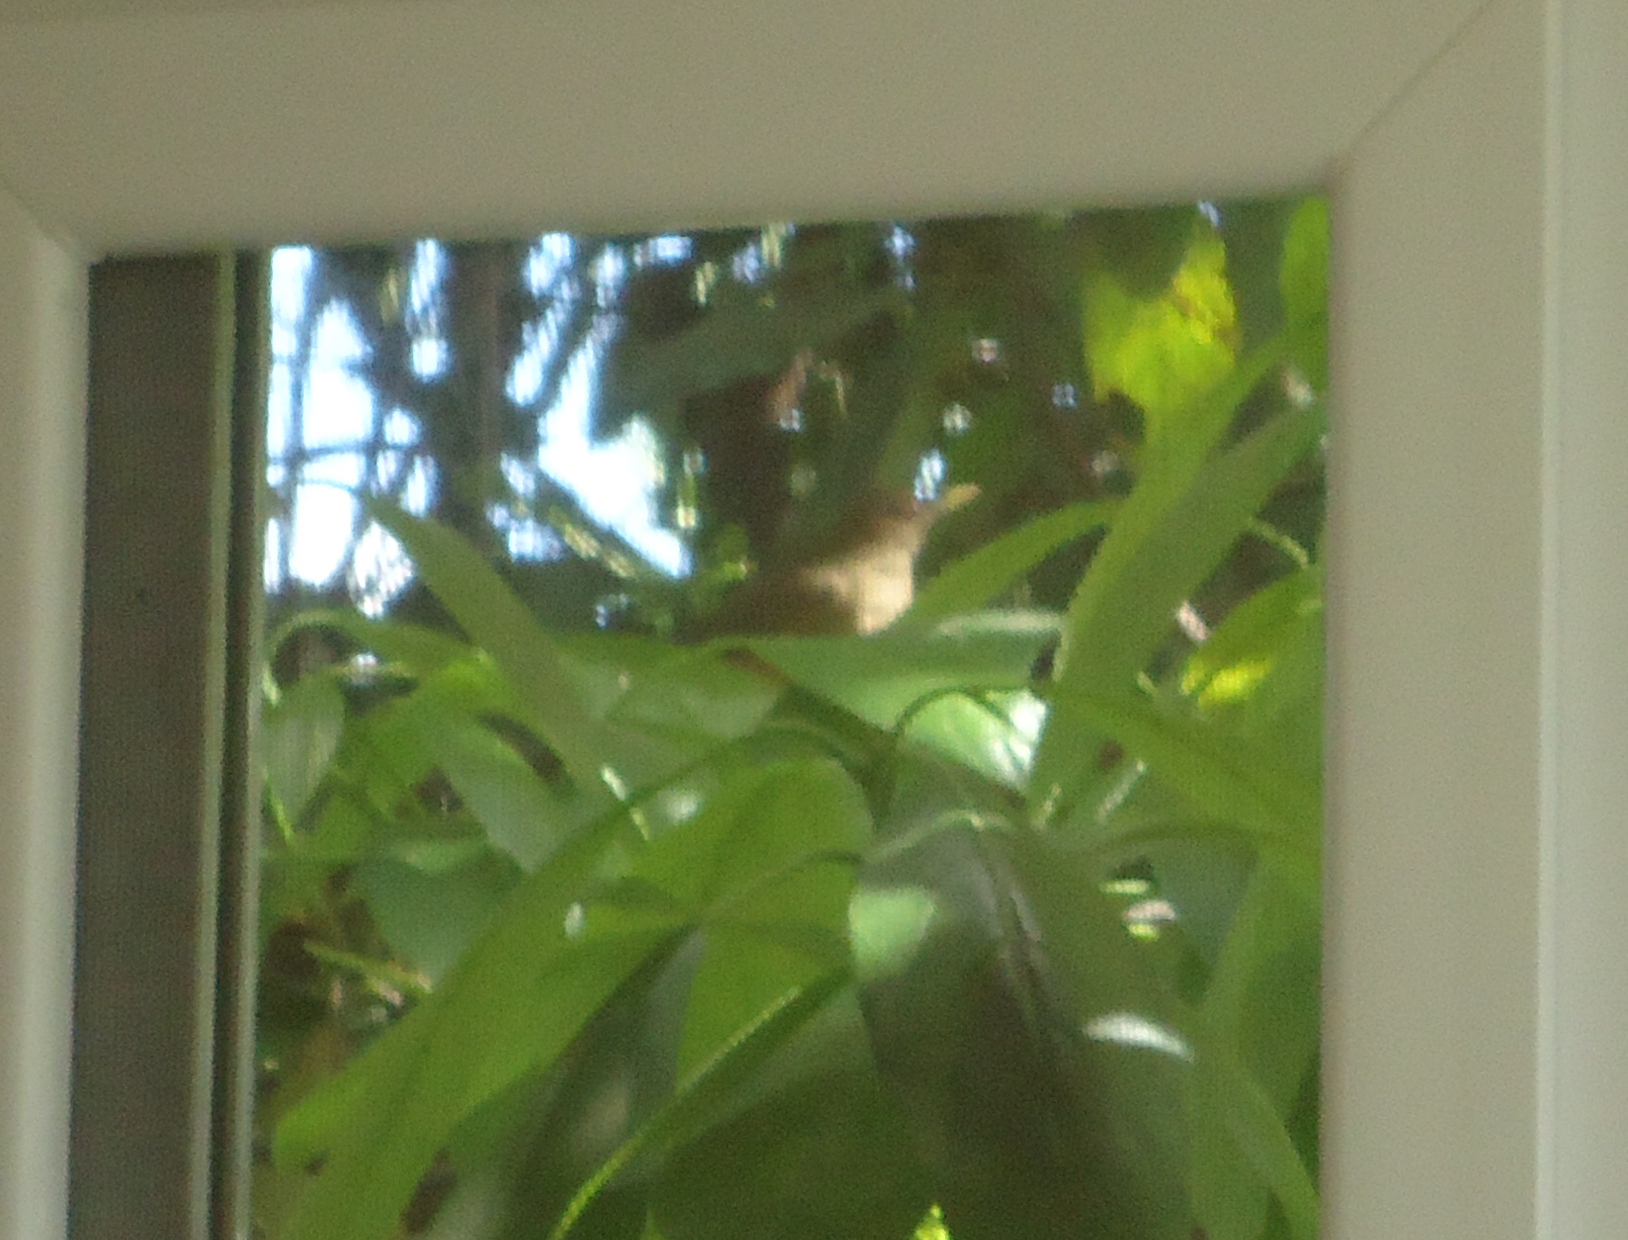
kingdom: Animalia
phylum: Chordata
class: Aves
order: Passeriformes
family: Turdidae
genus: Turdus
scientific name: Turdus grayi
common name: Clay-colored thrush
